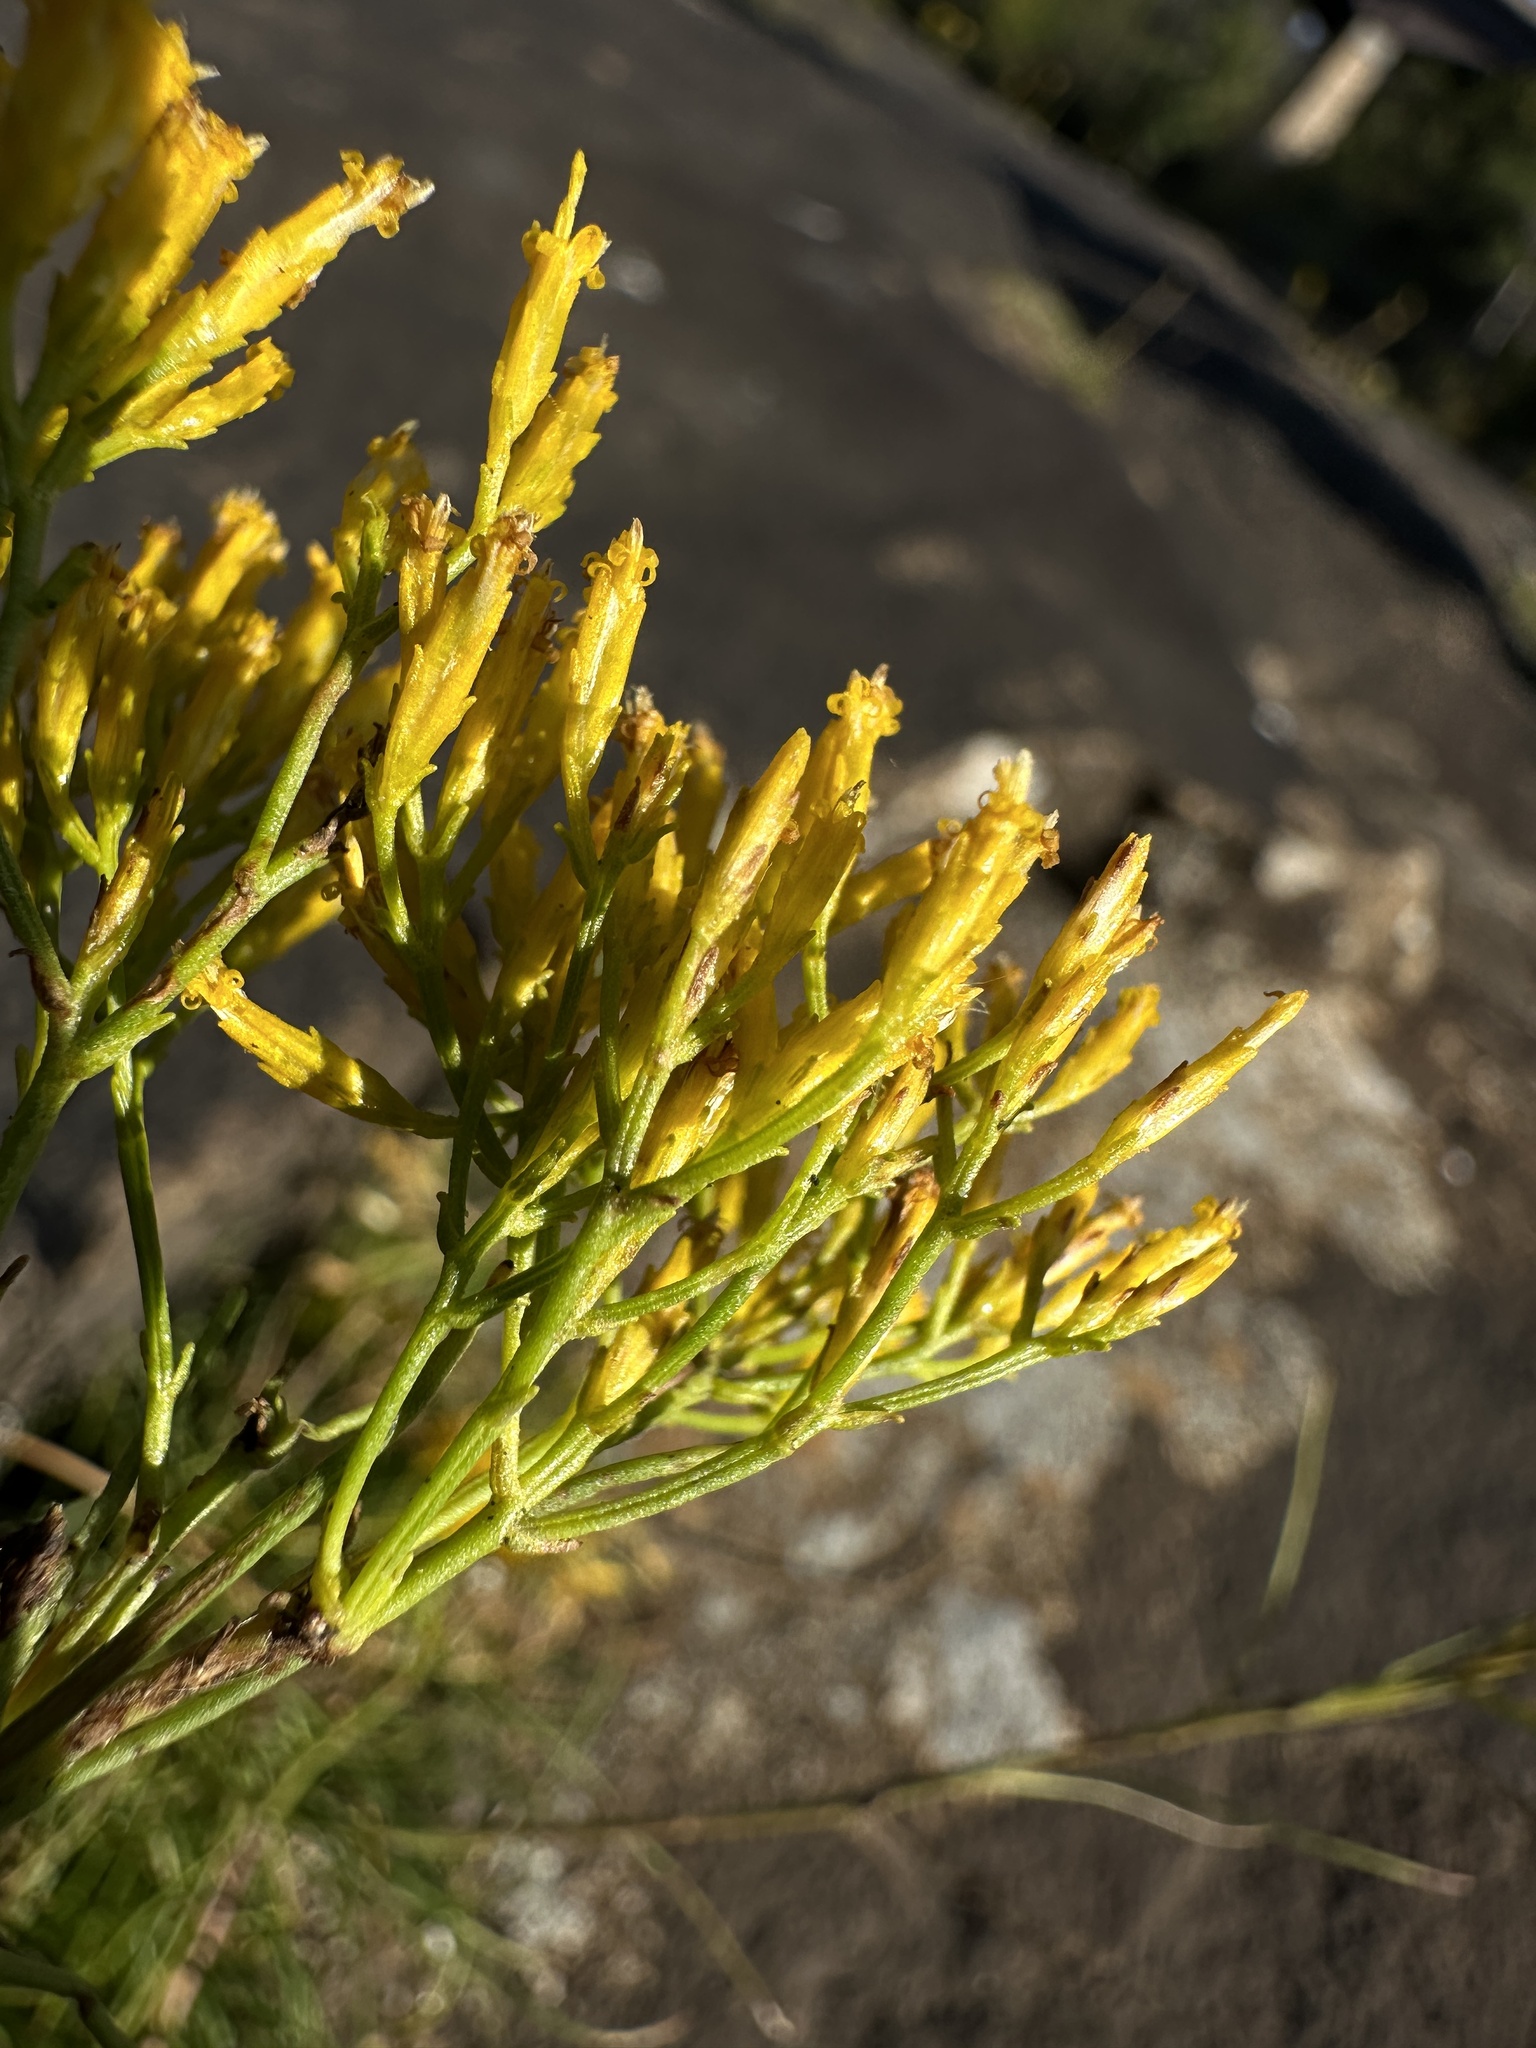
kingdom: Plantae
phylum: Tracheophyta
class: Magnoliopsida
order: Asterales
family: Asteraceae
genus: Bigelowia
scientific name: Bigelowia nuttallii
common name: Nuttall's rayless-goldenrod
